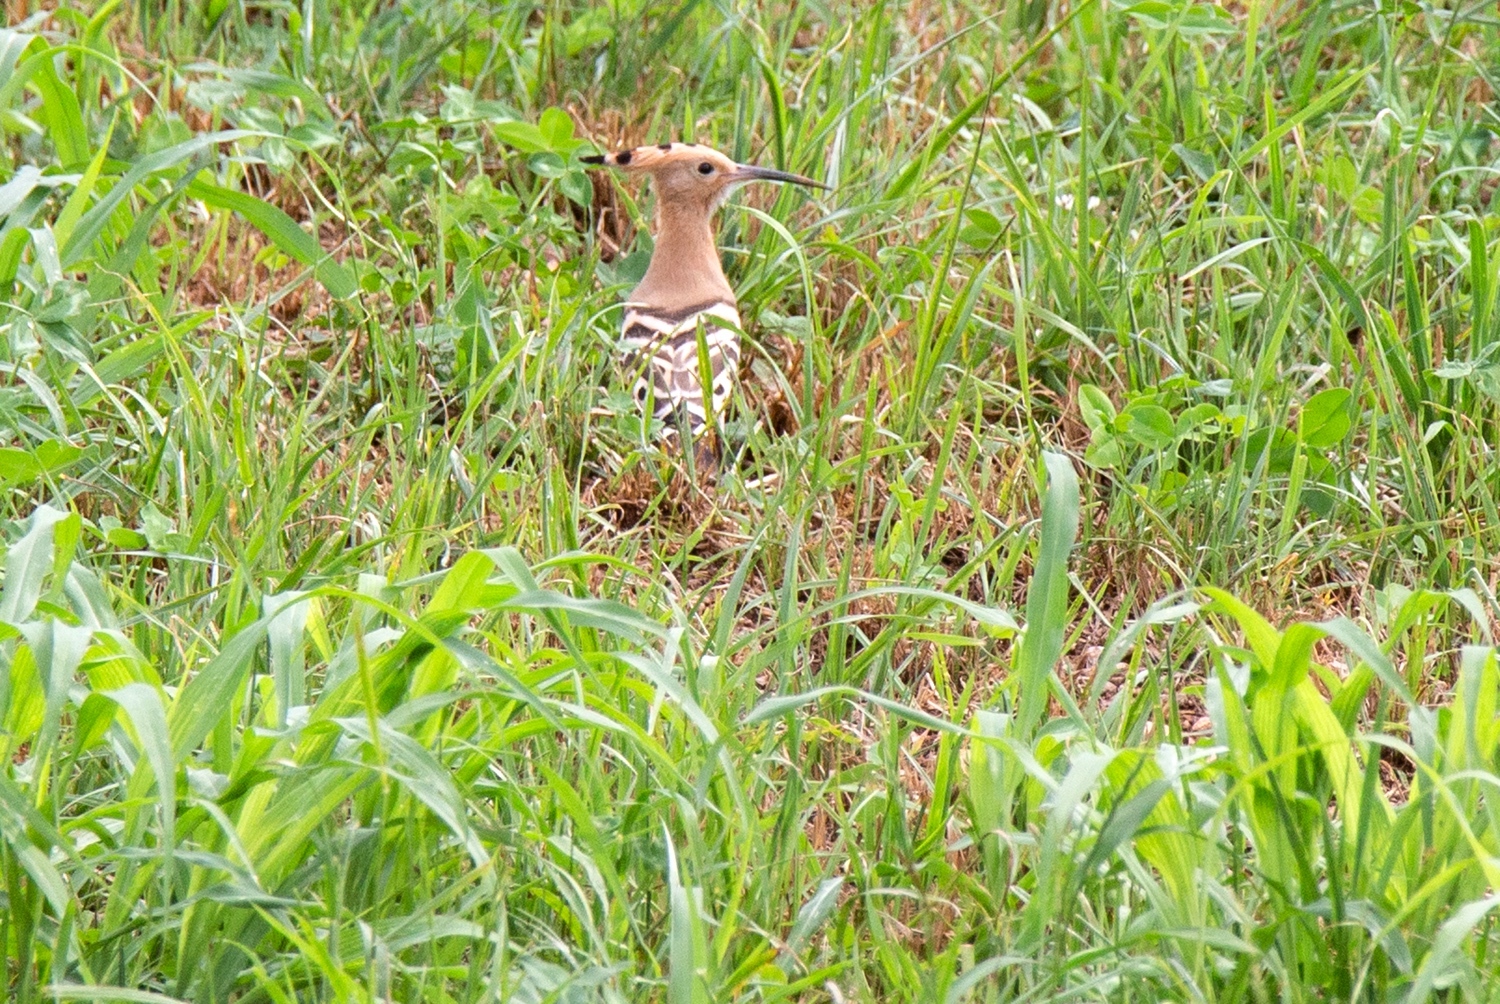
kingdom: Animalia
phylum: Chordata
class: Aves
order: Bucerotiformes
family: Upupidae
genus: Upupa
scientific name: Upupa epops
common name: Eurasian hoopoe
